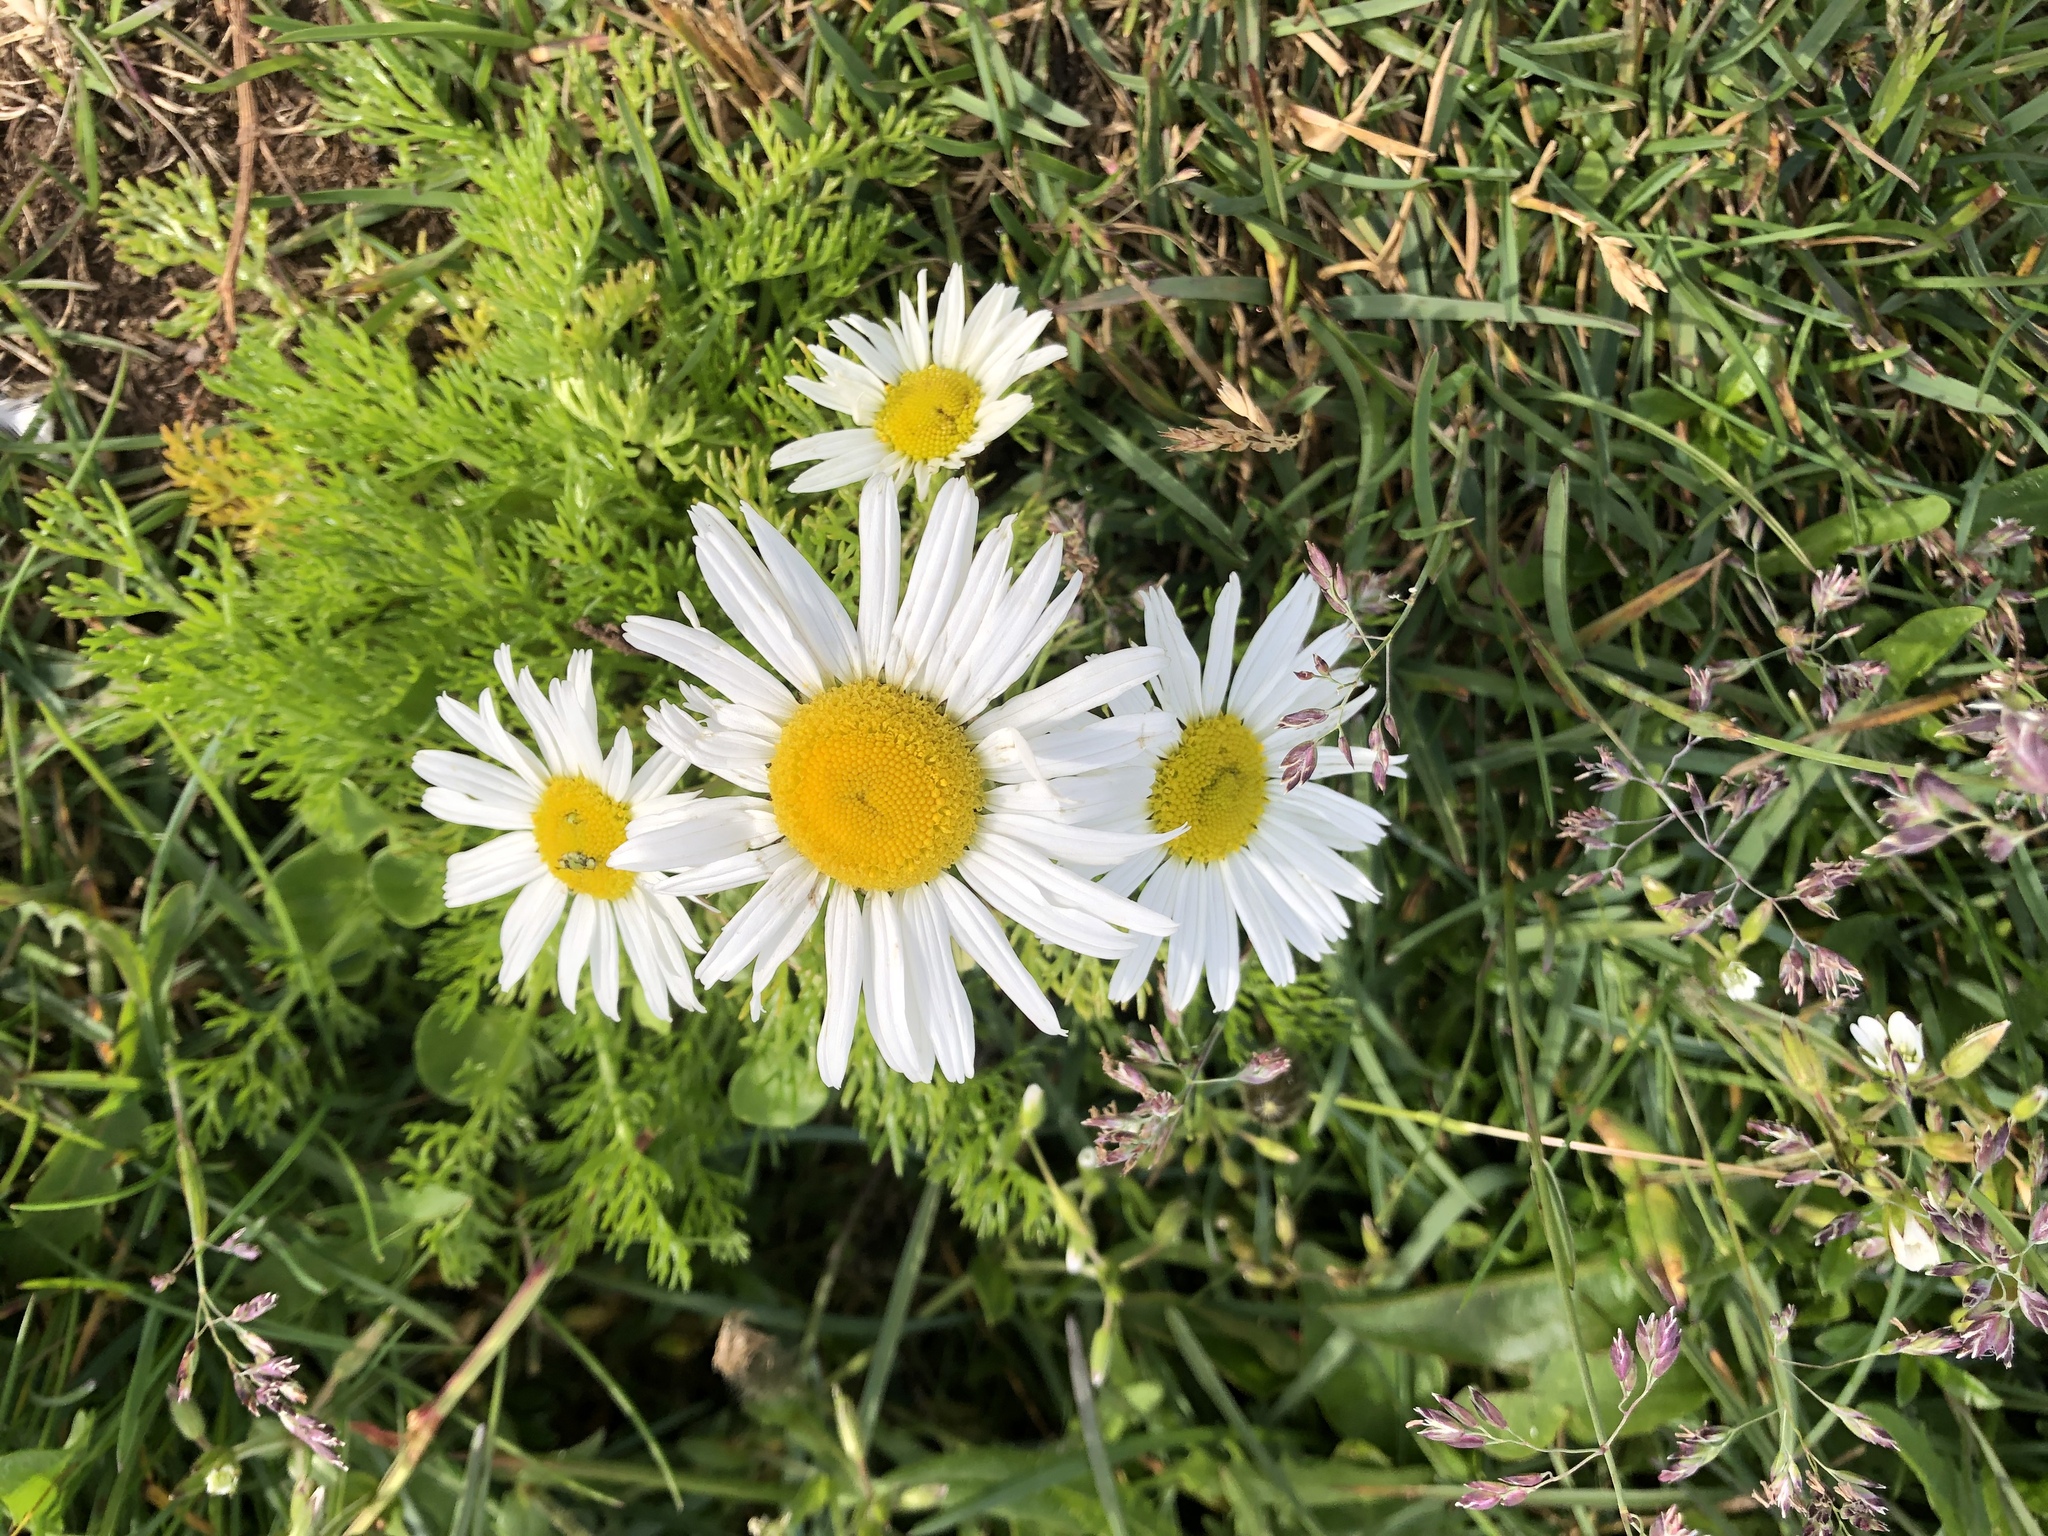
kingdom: Plantae
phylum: Tracheophyta
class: Magnoliopsida
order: Asterales
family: Asteraceae
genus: Tripleurospermum
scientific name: Tripleurospermum maritimum
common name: Sea mayweed
